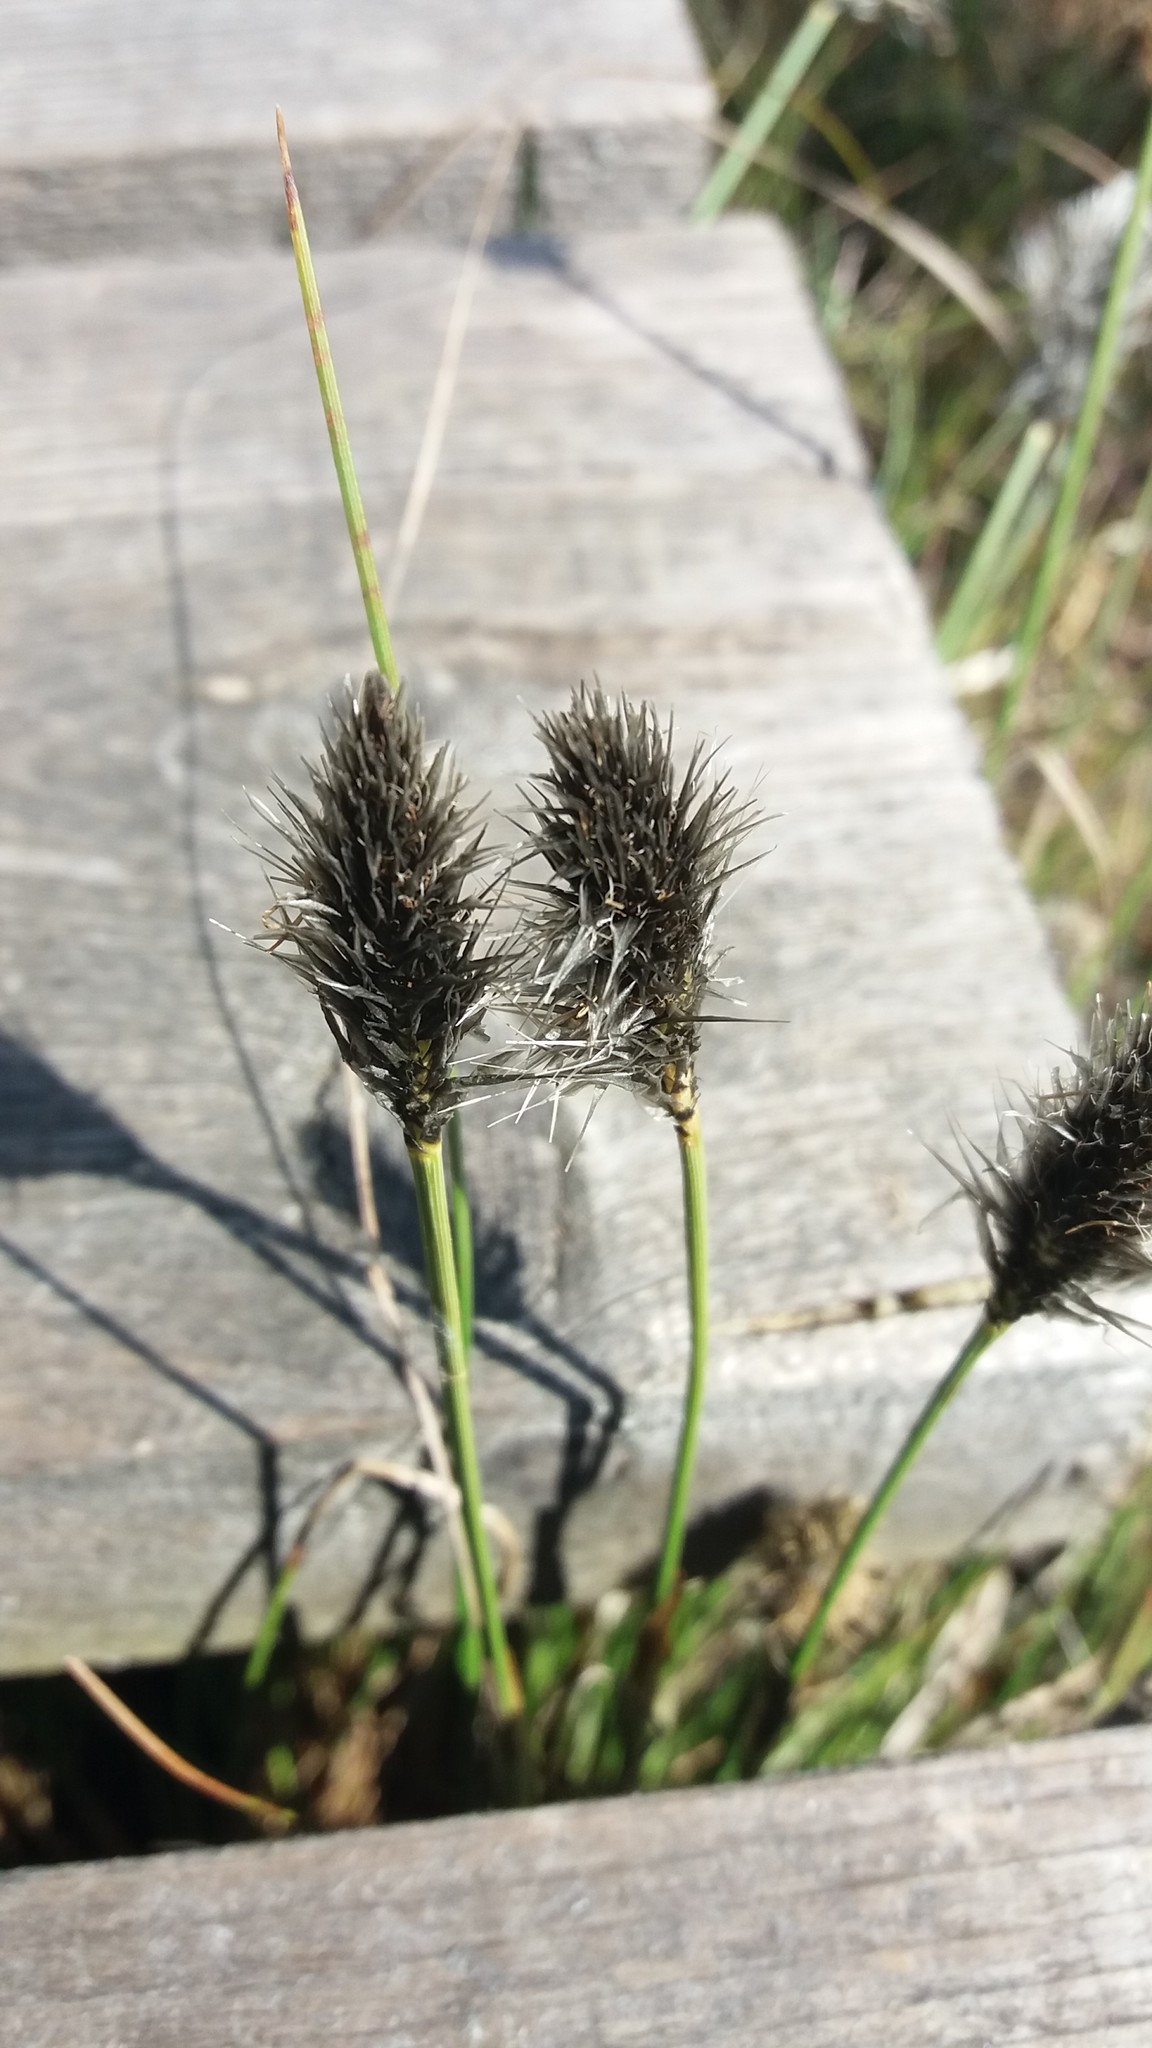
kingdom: Plantae
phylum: Tracheophyta
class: Liliopsida
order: Poales
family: Cyperaceae
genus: Eriophorum
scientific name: Eriophorum vaginatum
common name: Hare's-tail cottongrass
